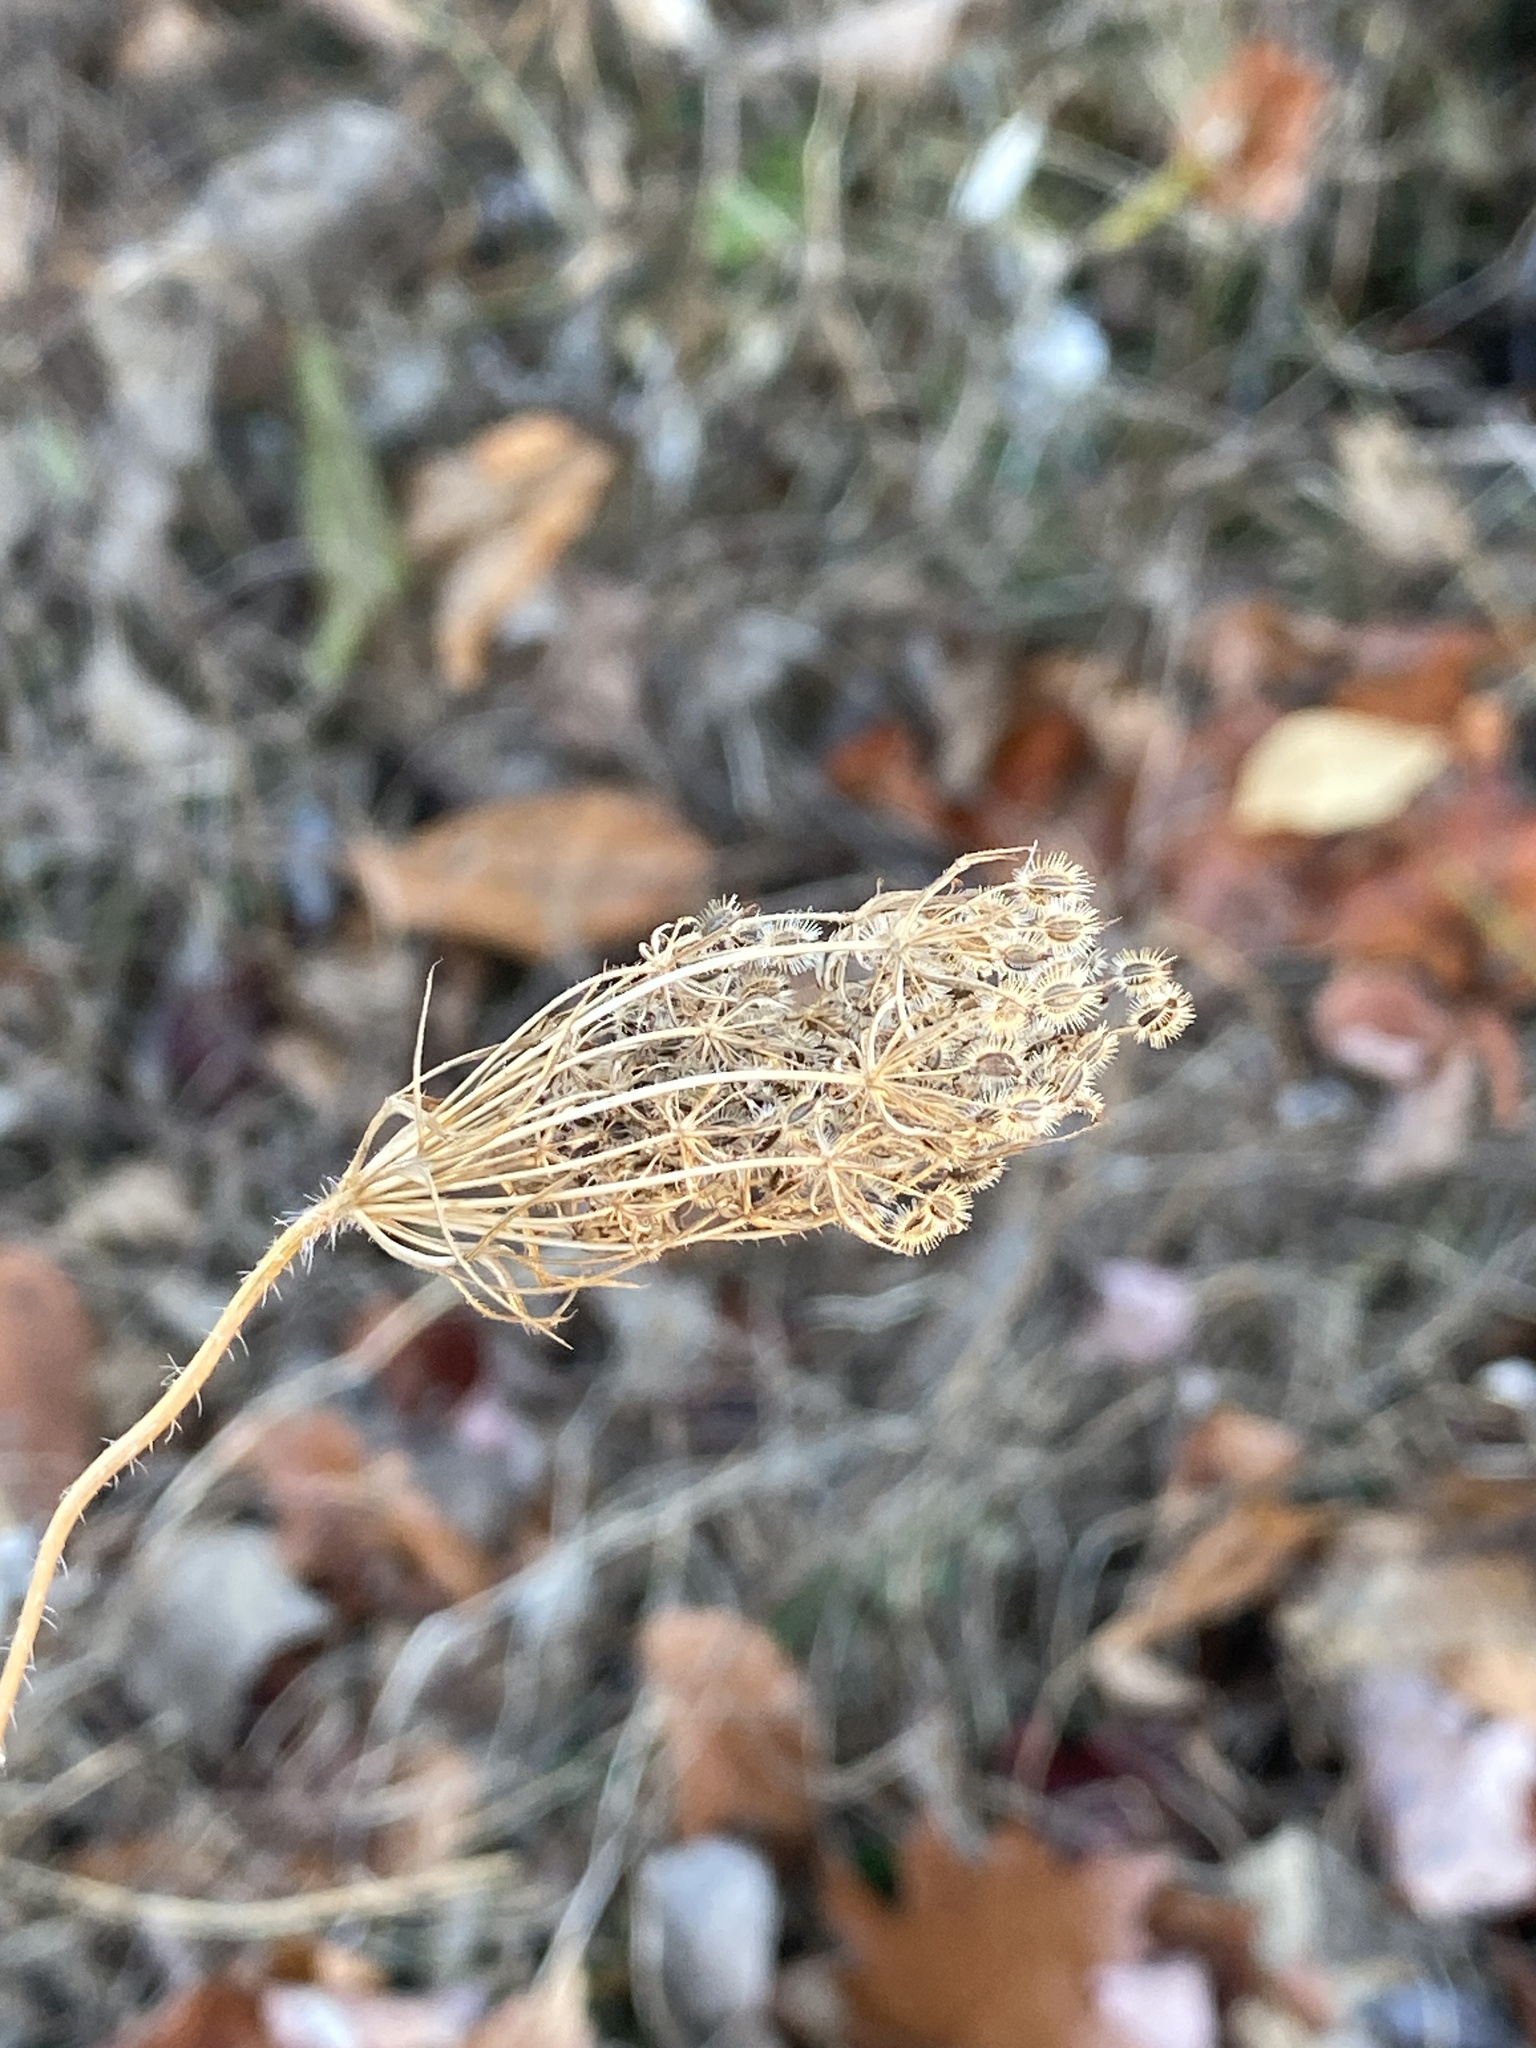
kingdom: Plantae
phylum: Tracheophyta
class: Magnoliopsida
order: Apiales
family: Apiaceae
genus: Daucus
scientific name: Daucus carota
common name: Wild carrot
